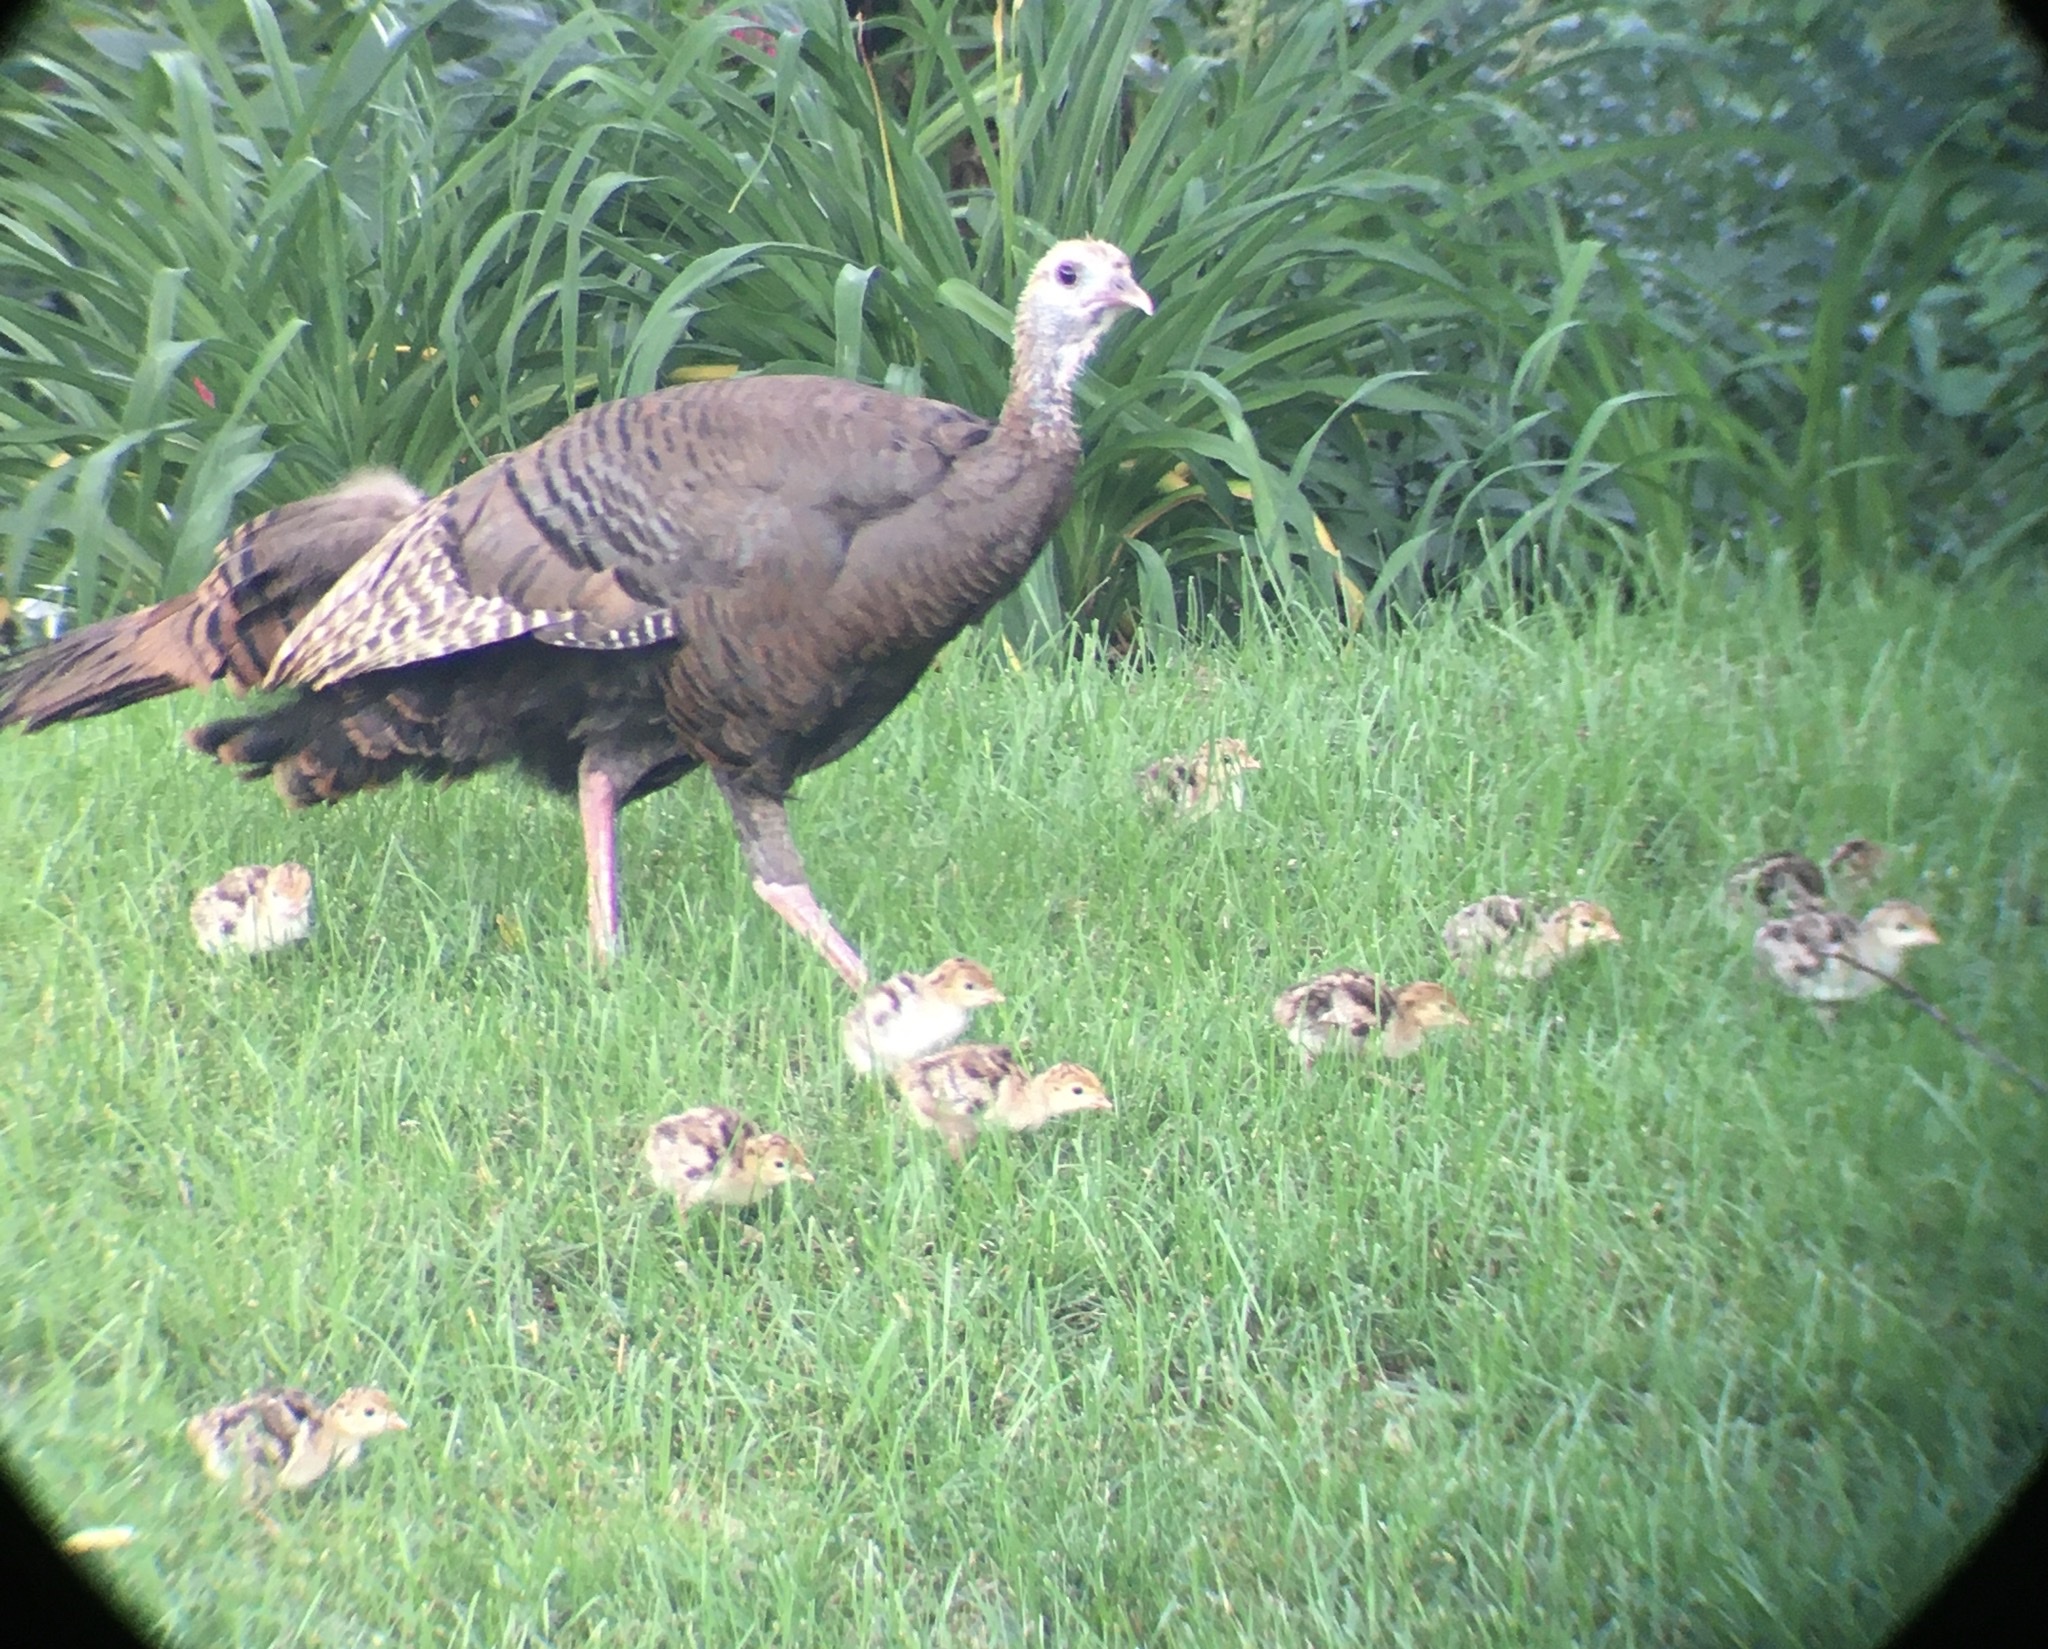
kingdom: Animalia
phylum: Chordata
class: Aves
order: Galliformes
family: Phasianidae
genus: Meleagris
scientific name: Meleagris gallopavo
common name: Wild turkey
